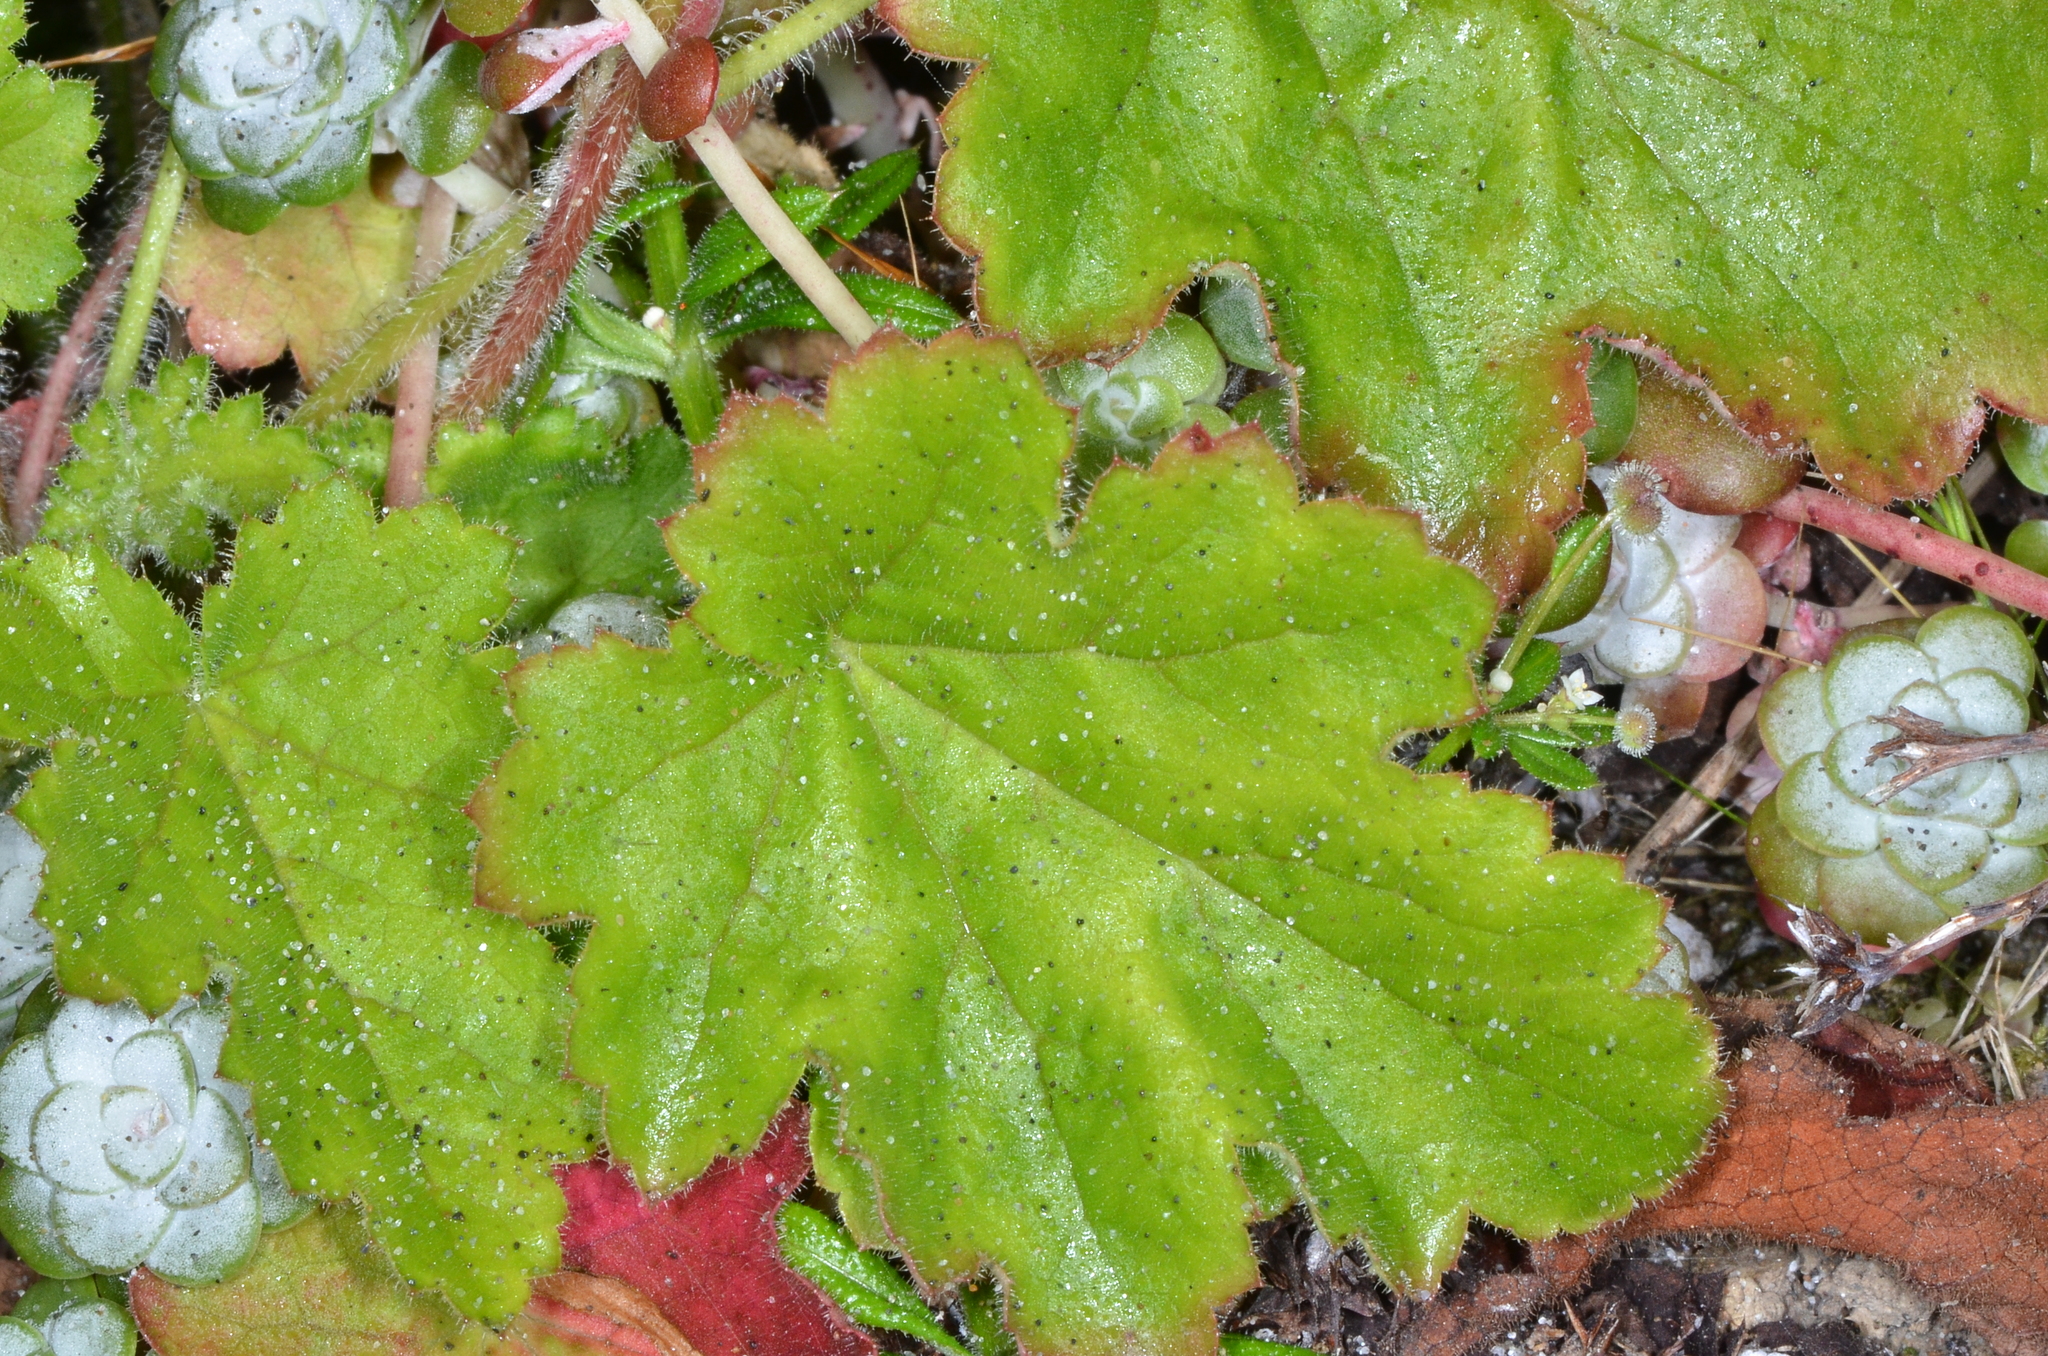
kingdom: Plantae
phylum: Tracheophyta
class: Magnoliopsida
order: Saxifragales
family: Saxifragaceae
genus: Heuchera
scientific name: Heuchera pilosissima
